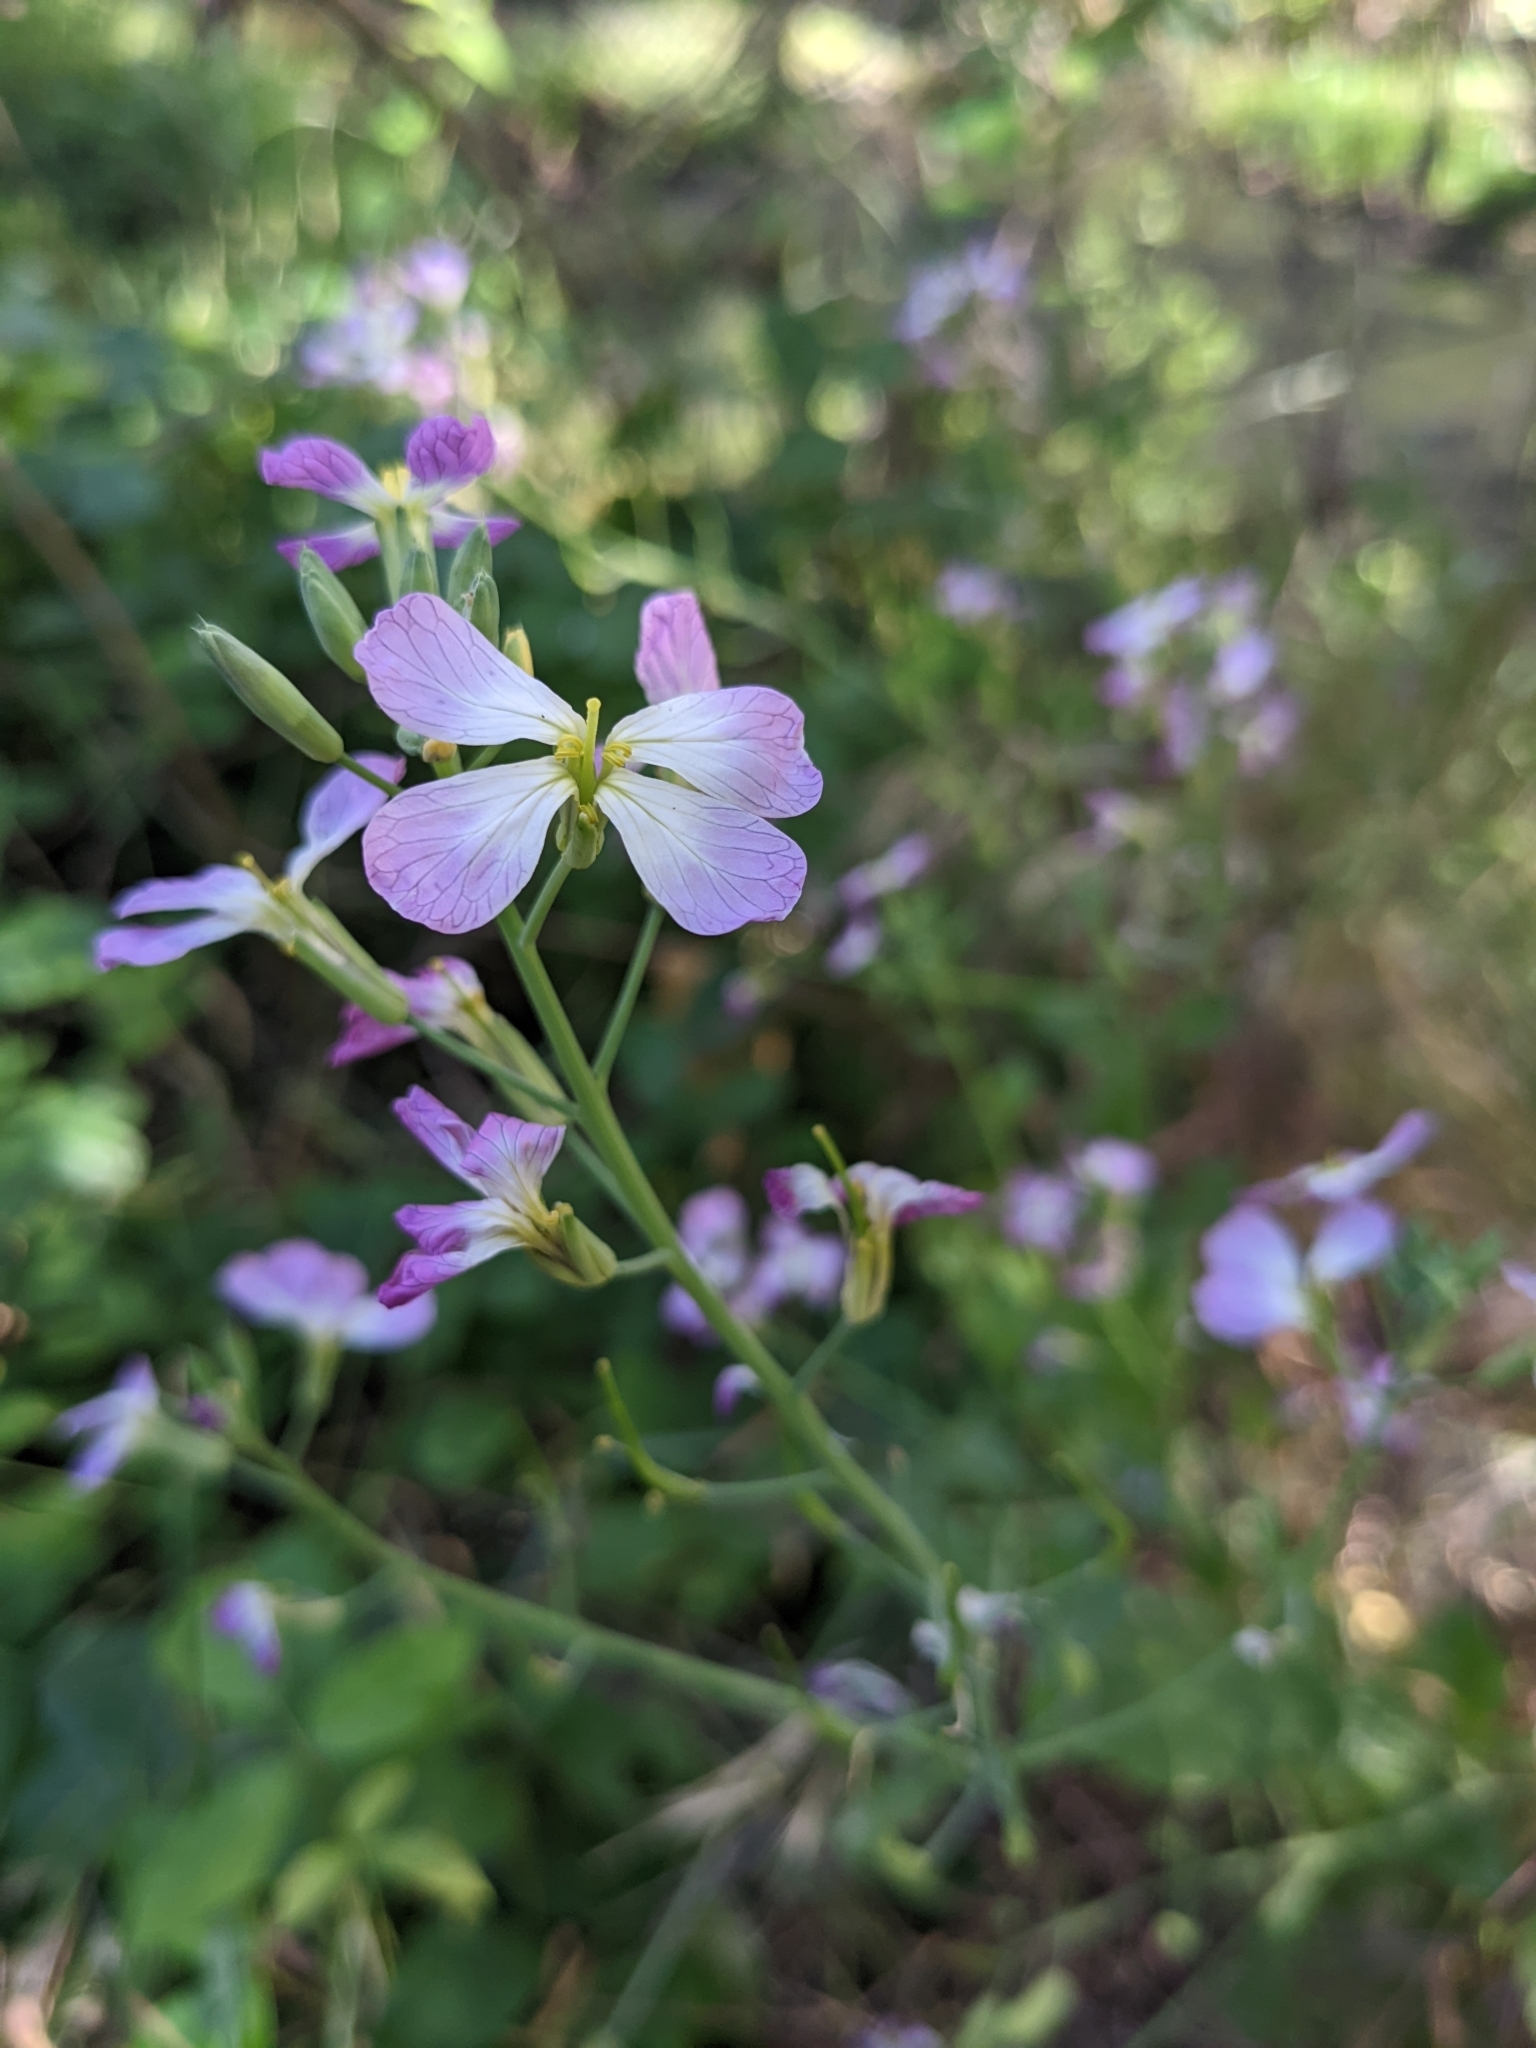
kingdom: Plantae
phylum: Tracheophyta
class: Magnoliopsida
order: Brassicales
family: Brassicaceae
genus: Raphanus
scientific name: Raphanus sativus
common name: Cultivated radish
